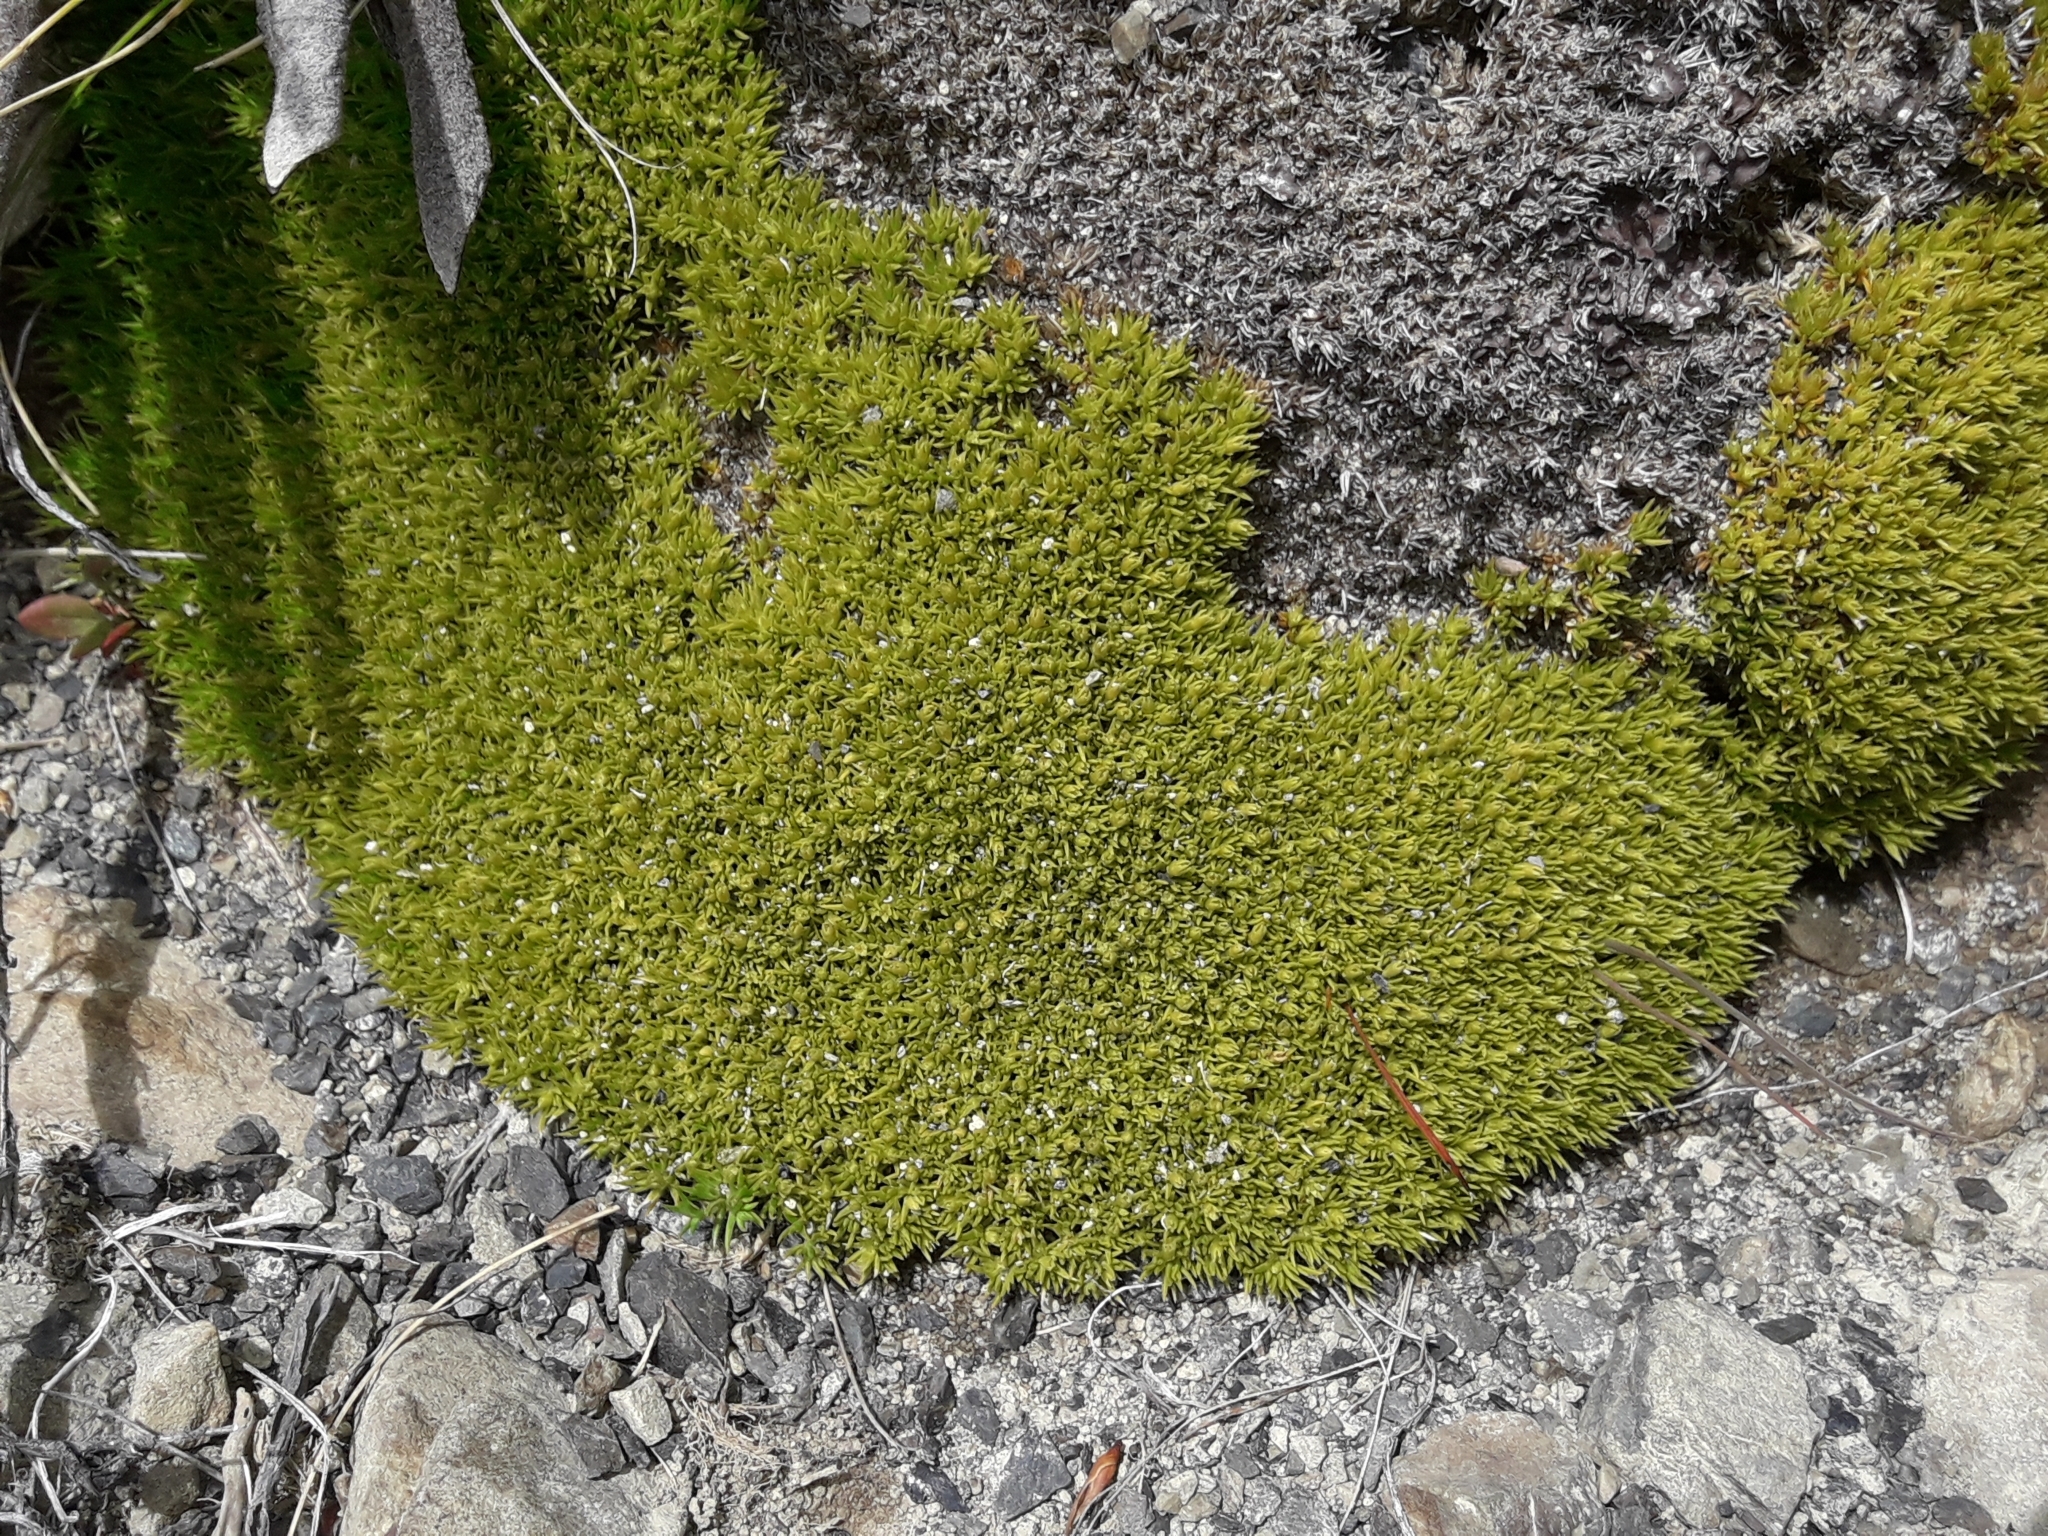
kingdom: Plantae
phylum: Tracheophyta
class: Magnoliopsida
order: Caryophyllales
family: Caryophyllaceae
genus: Scleranthus
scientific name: Scleranthus uniflorus
